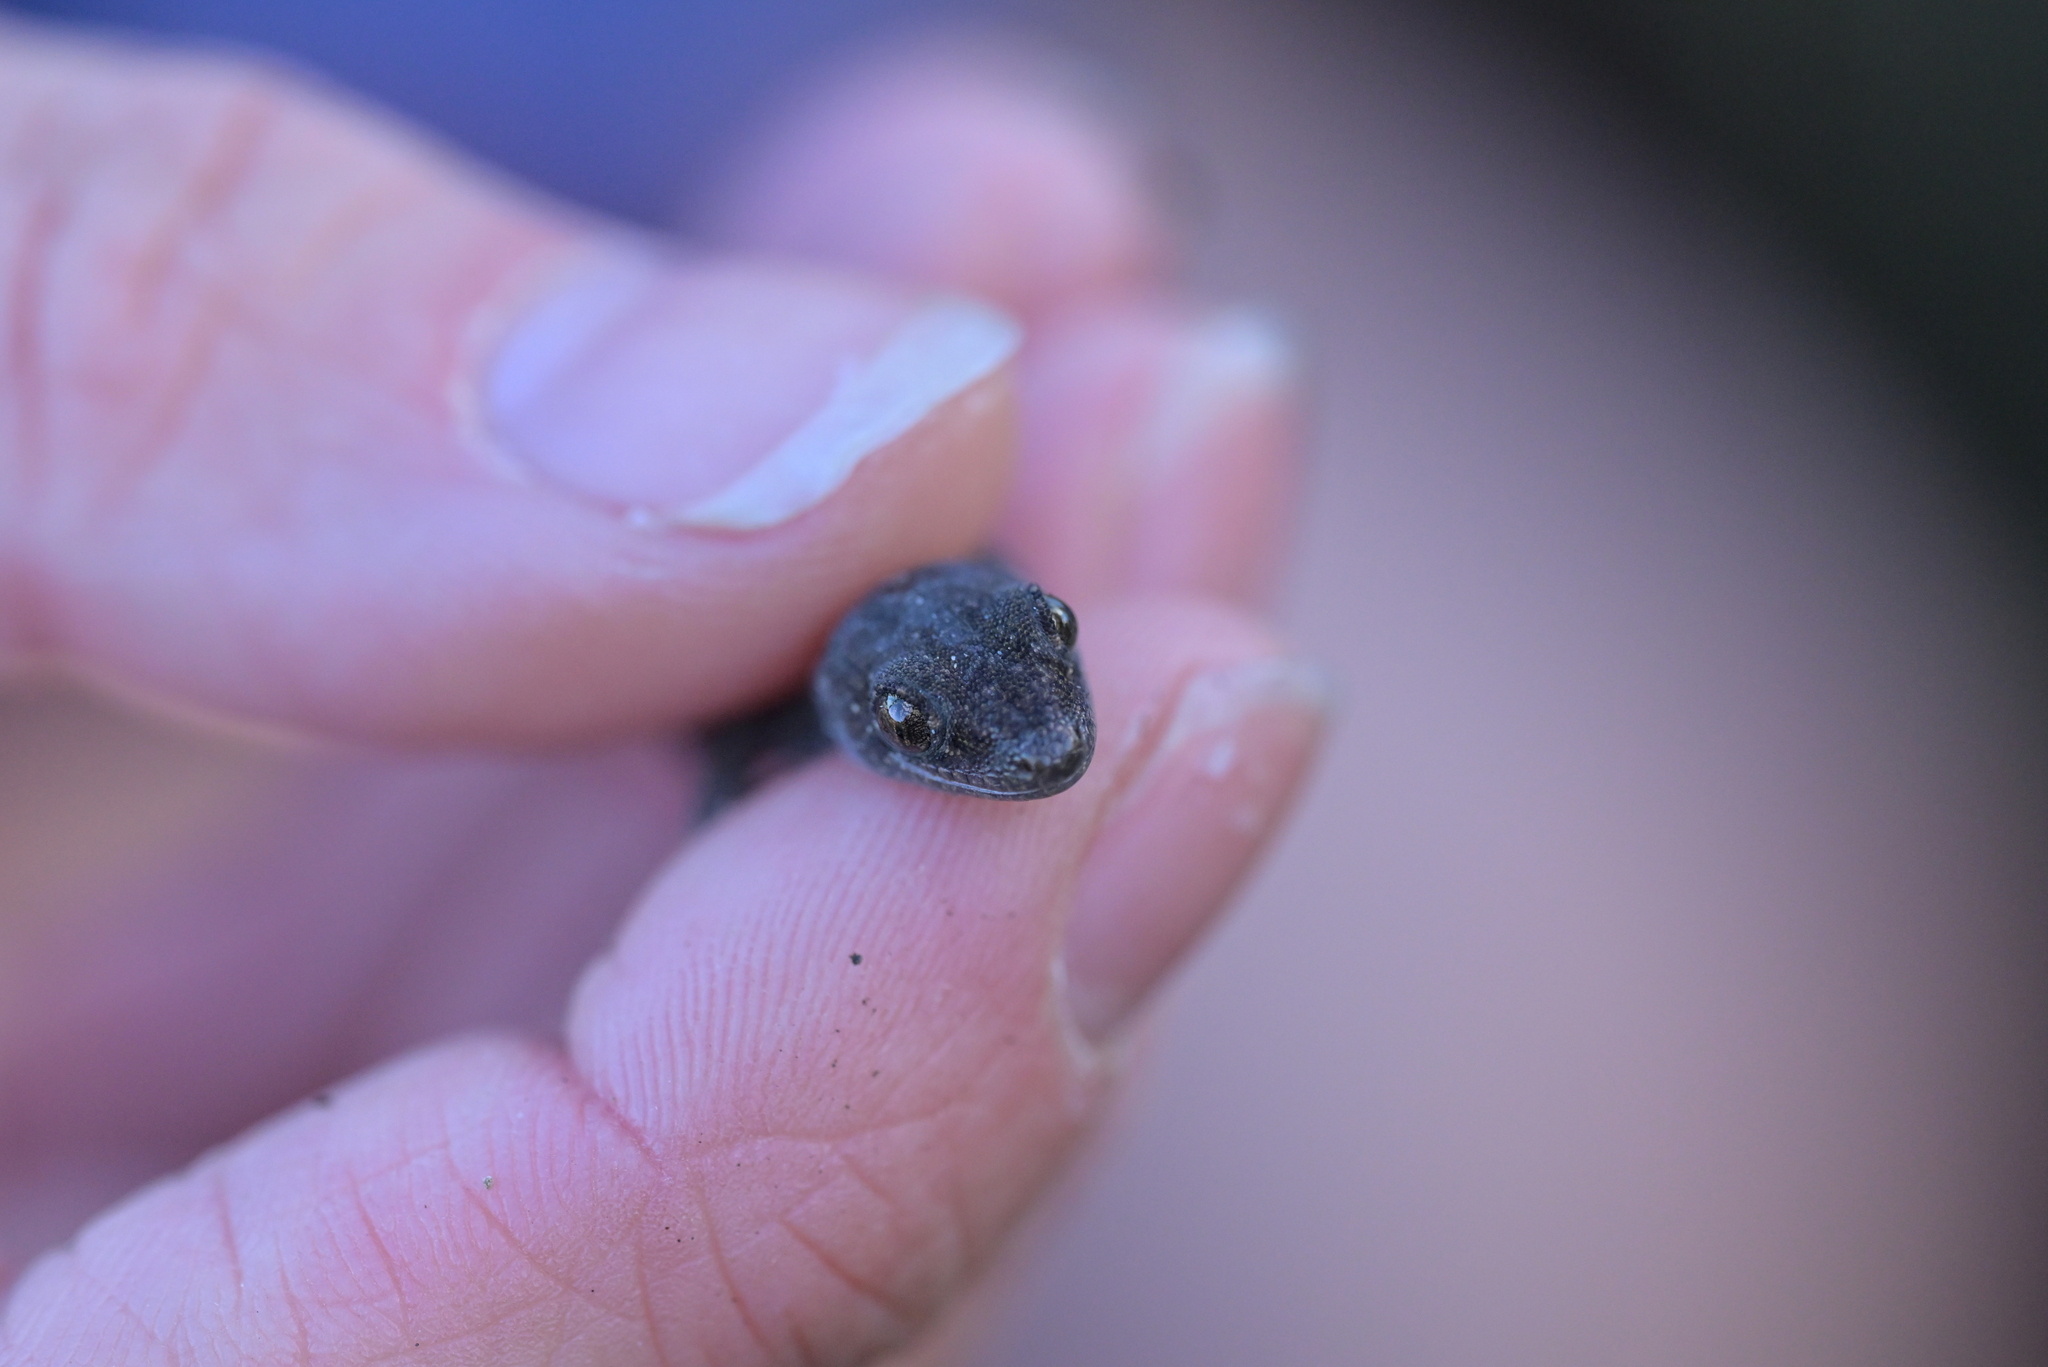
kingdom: Animalia
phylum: Chordata
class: Squamata
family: Diplodactylidae
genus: Woodworthia
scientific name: Woodworthia maculata
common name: Raukawa gecko
